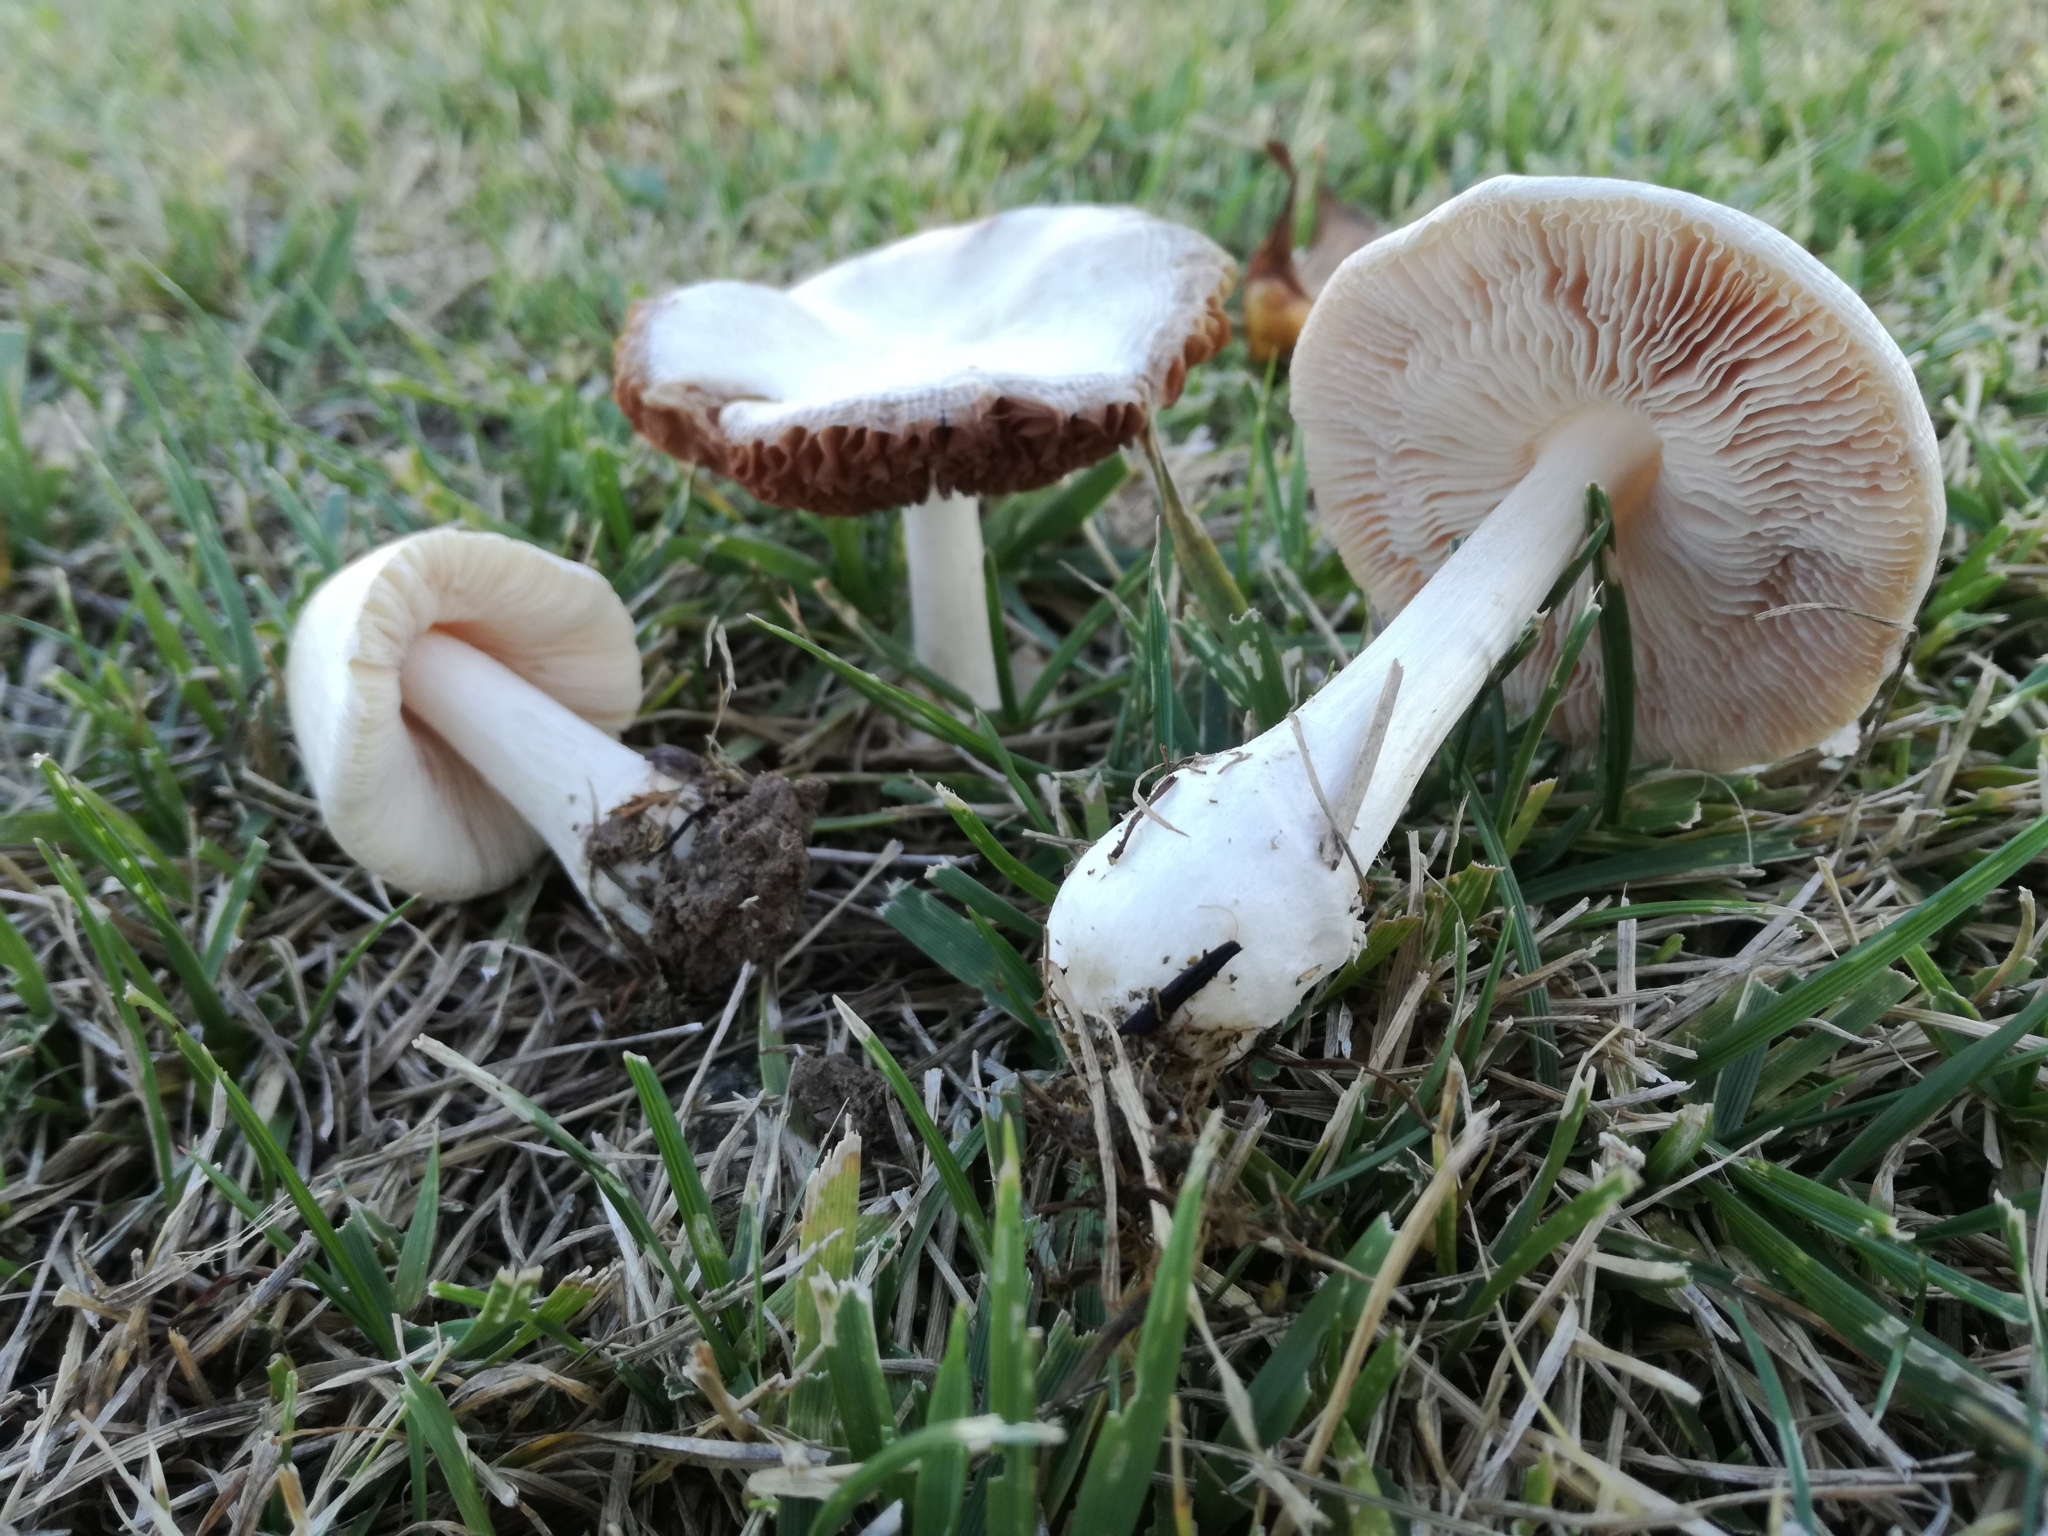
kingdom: Fungi
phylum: Basidiomycota
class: Agaricomycetes
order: Agaricales
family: Pluteaceae
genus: Volvopluteus
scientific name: Volvopluteus earlei
